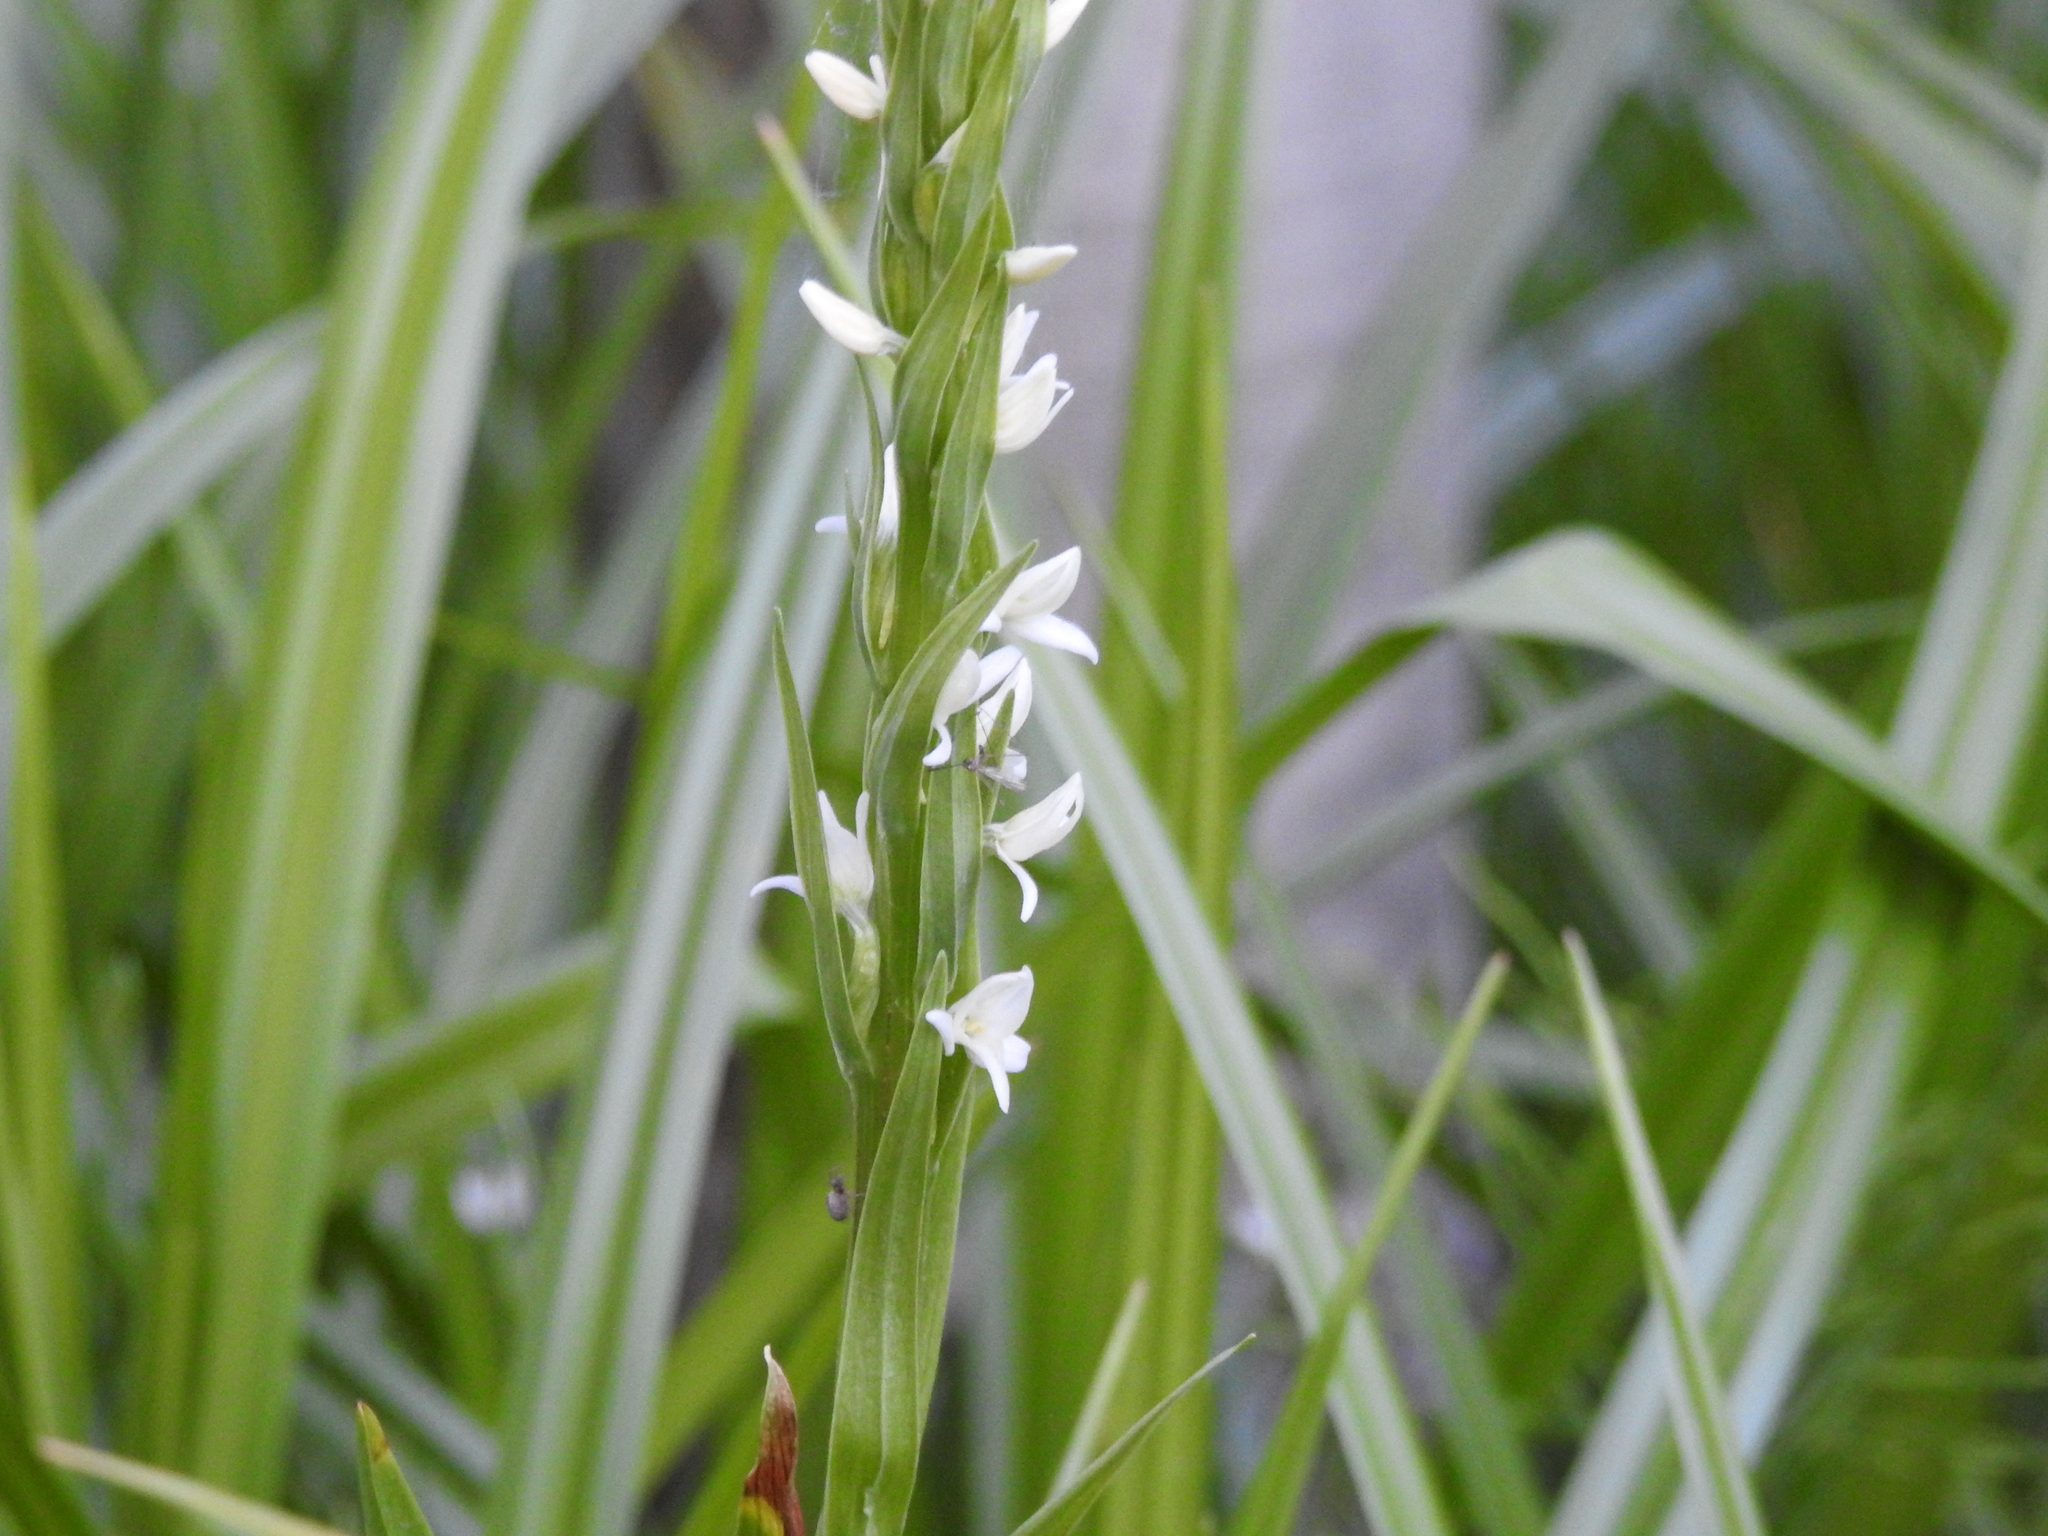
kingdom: Plantae
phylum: Tracheophyta
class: Liliopsida
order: Asparagales
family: Orchidaceae
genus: Platanthera
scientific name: Platanthera dilatata
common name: Bog candles
